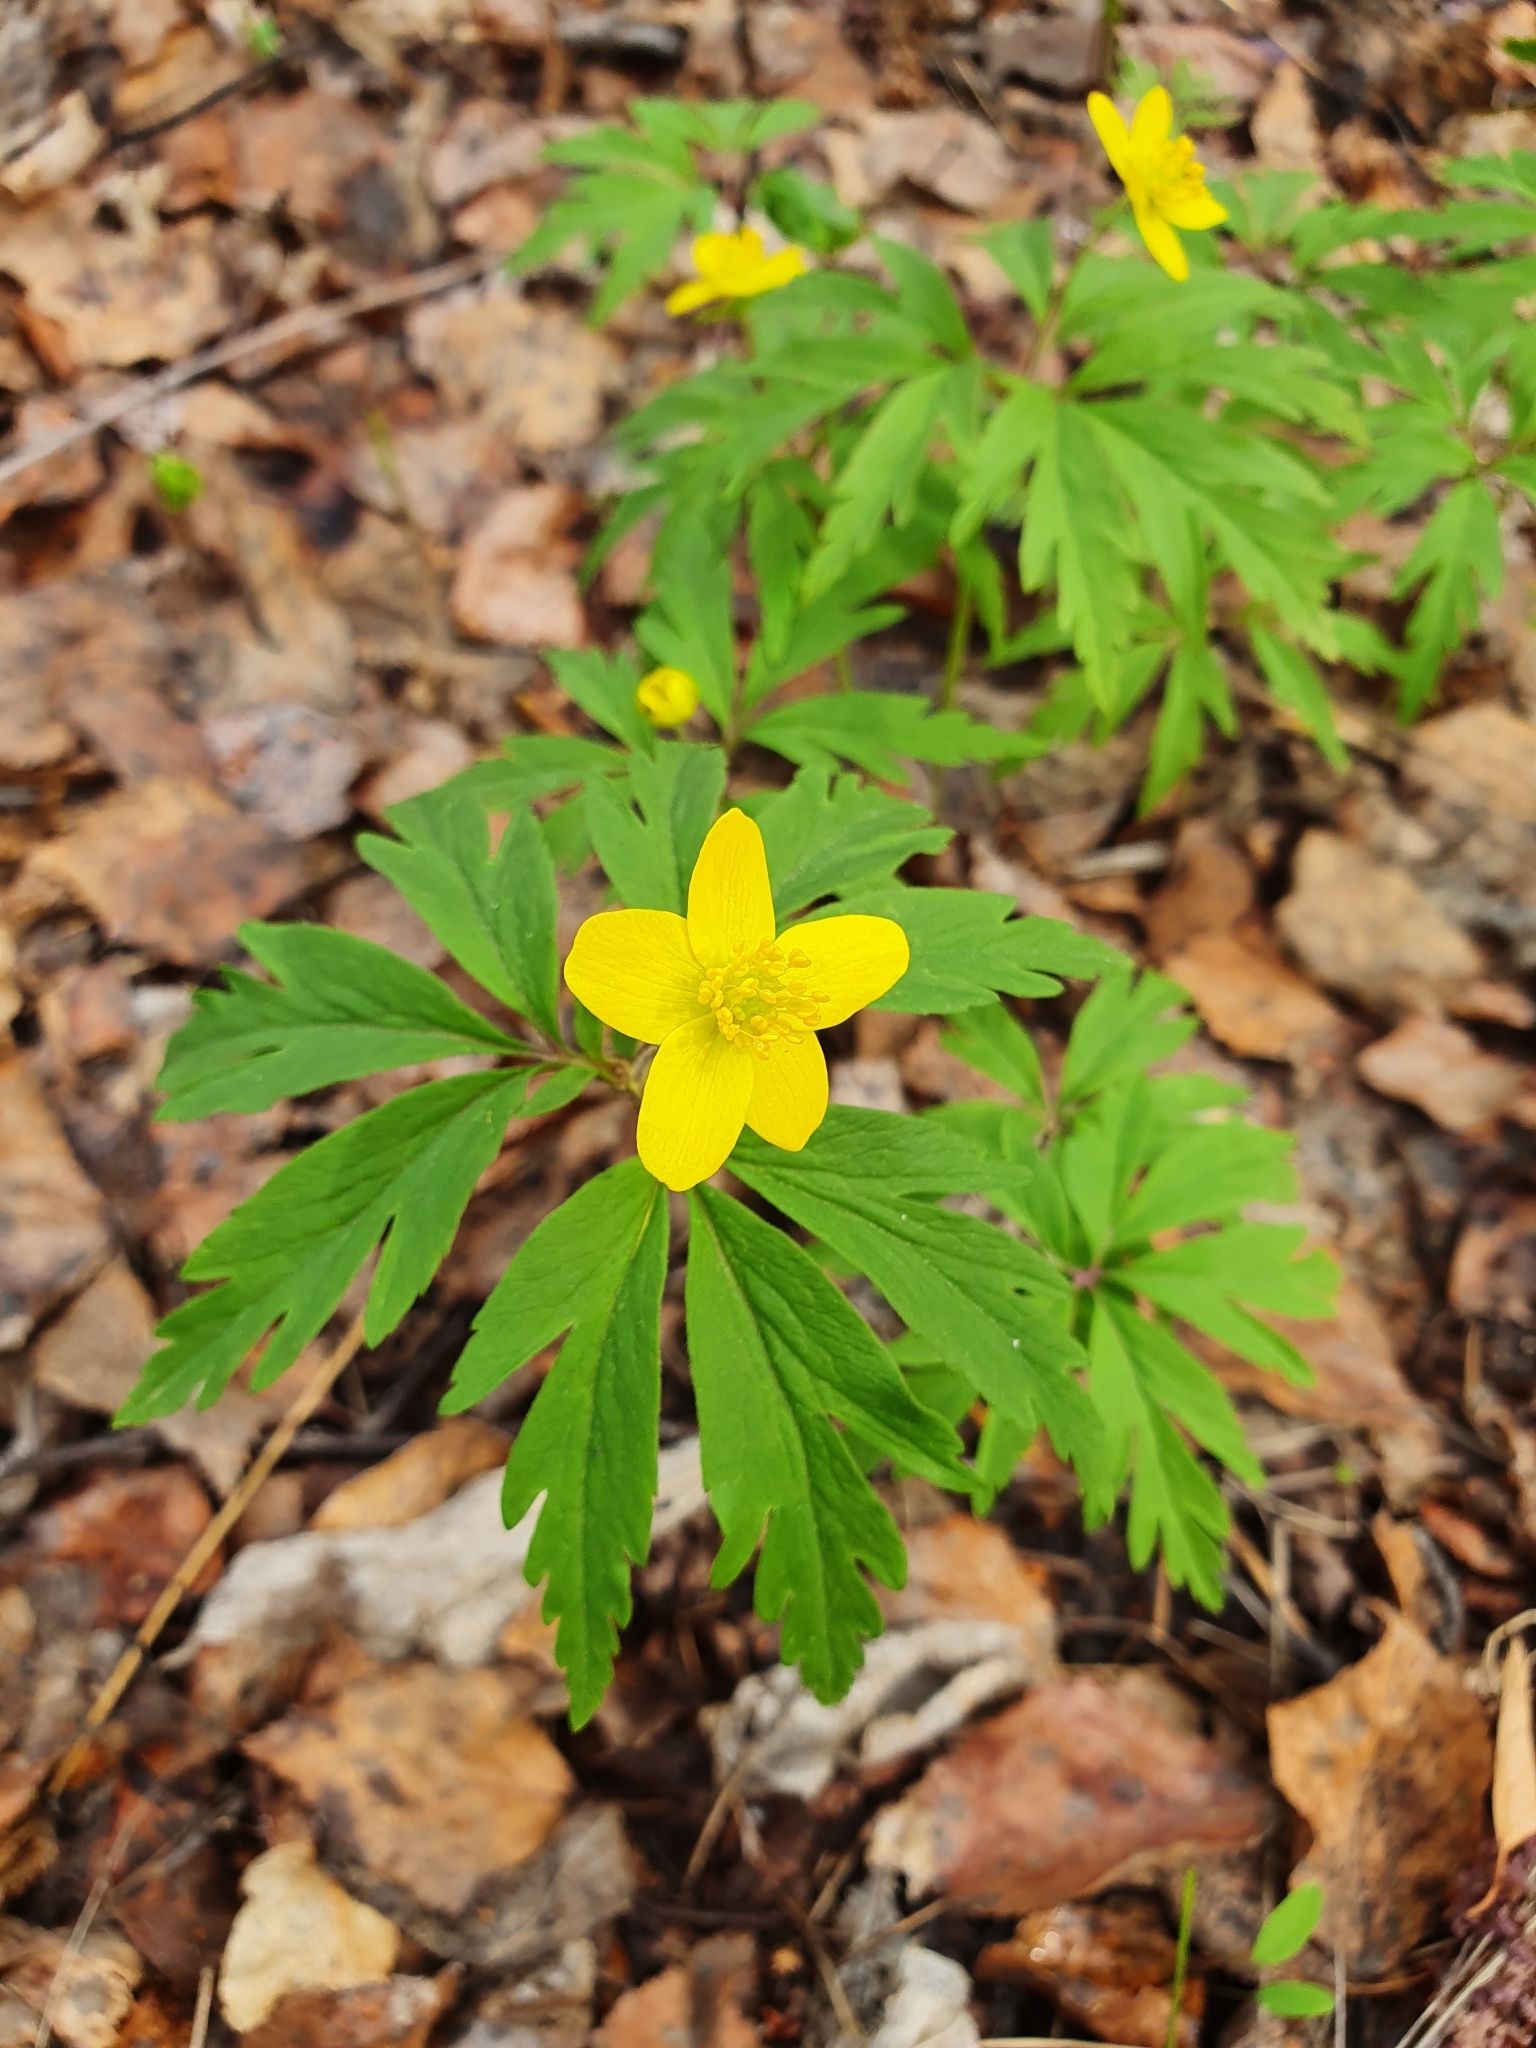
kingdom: Plantae
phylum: Tracheophyta
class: Magnoliopsida
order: Ranunculales
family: Ranunculaceae
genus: Anemone
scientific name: Anemone ranunculoides
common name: Yellow anemone
